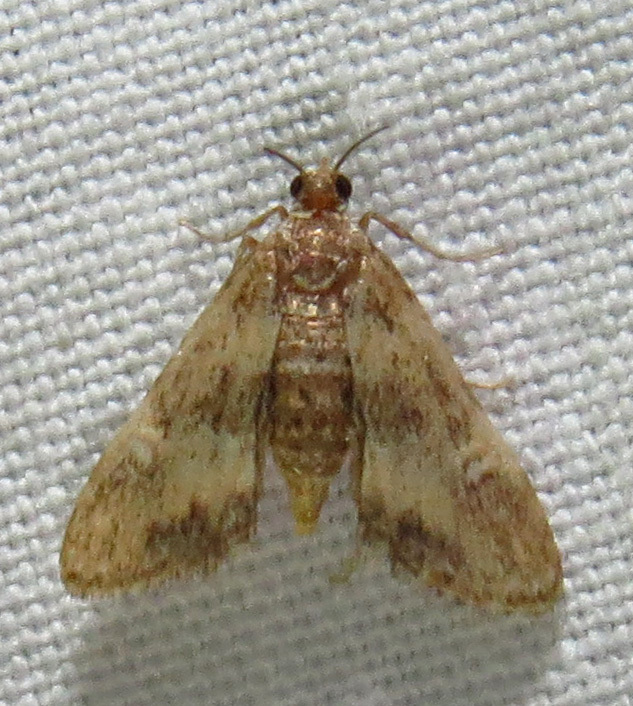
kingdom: Animalia
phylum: Arthropoda
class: Insecta
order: Lepidoptera
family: Crambidae
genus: Elophila
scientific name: Elophila obliteralis
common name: Waterlily leafcutter moth
